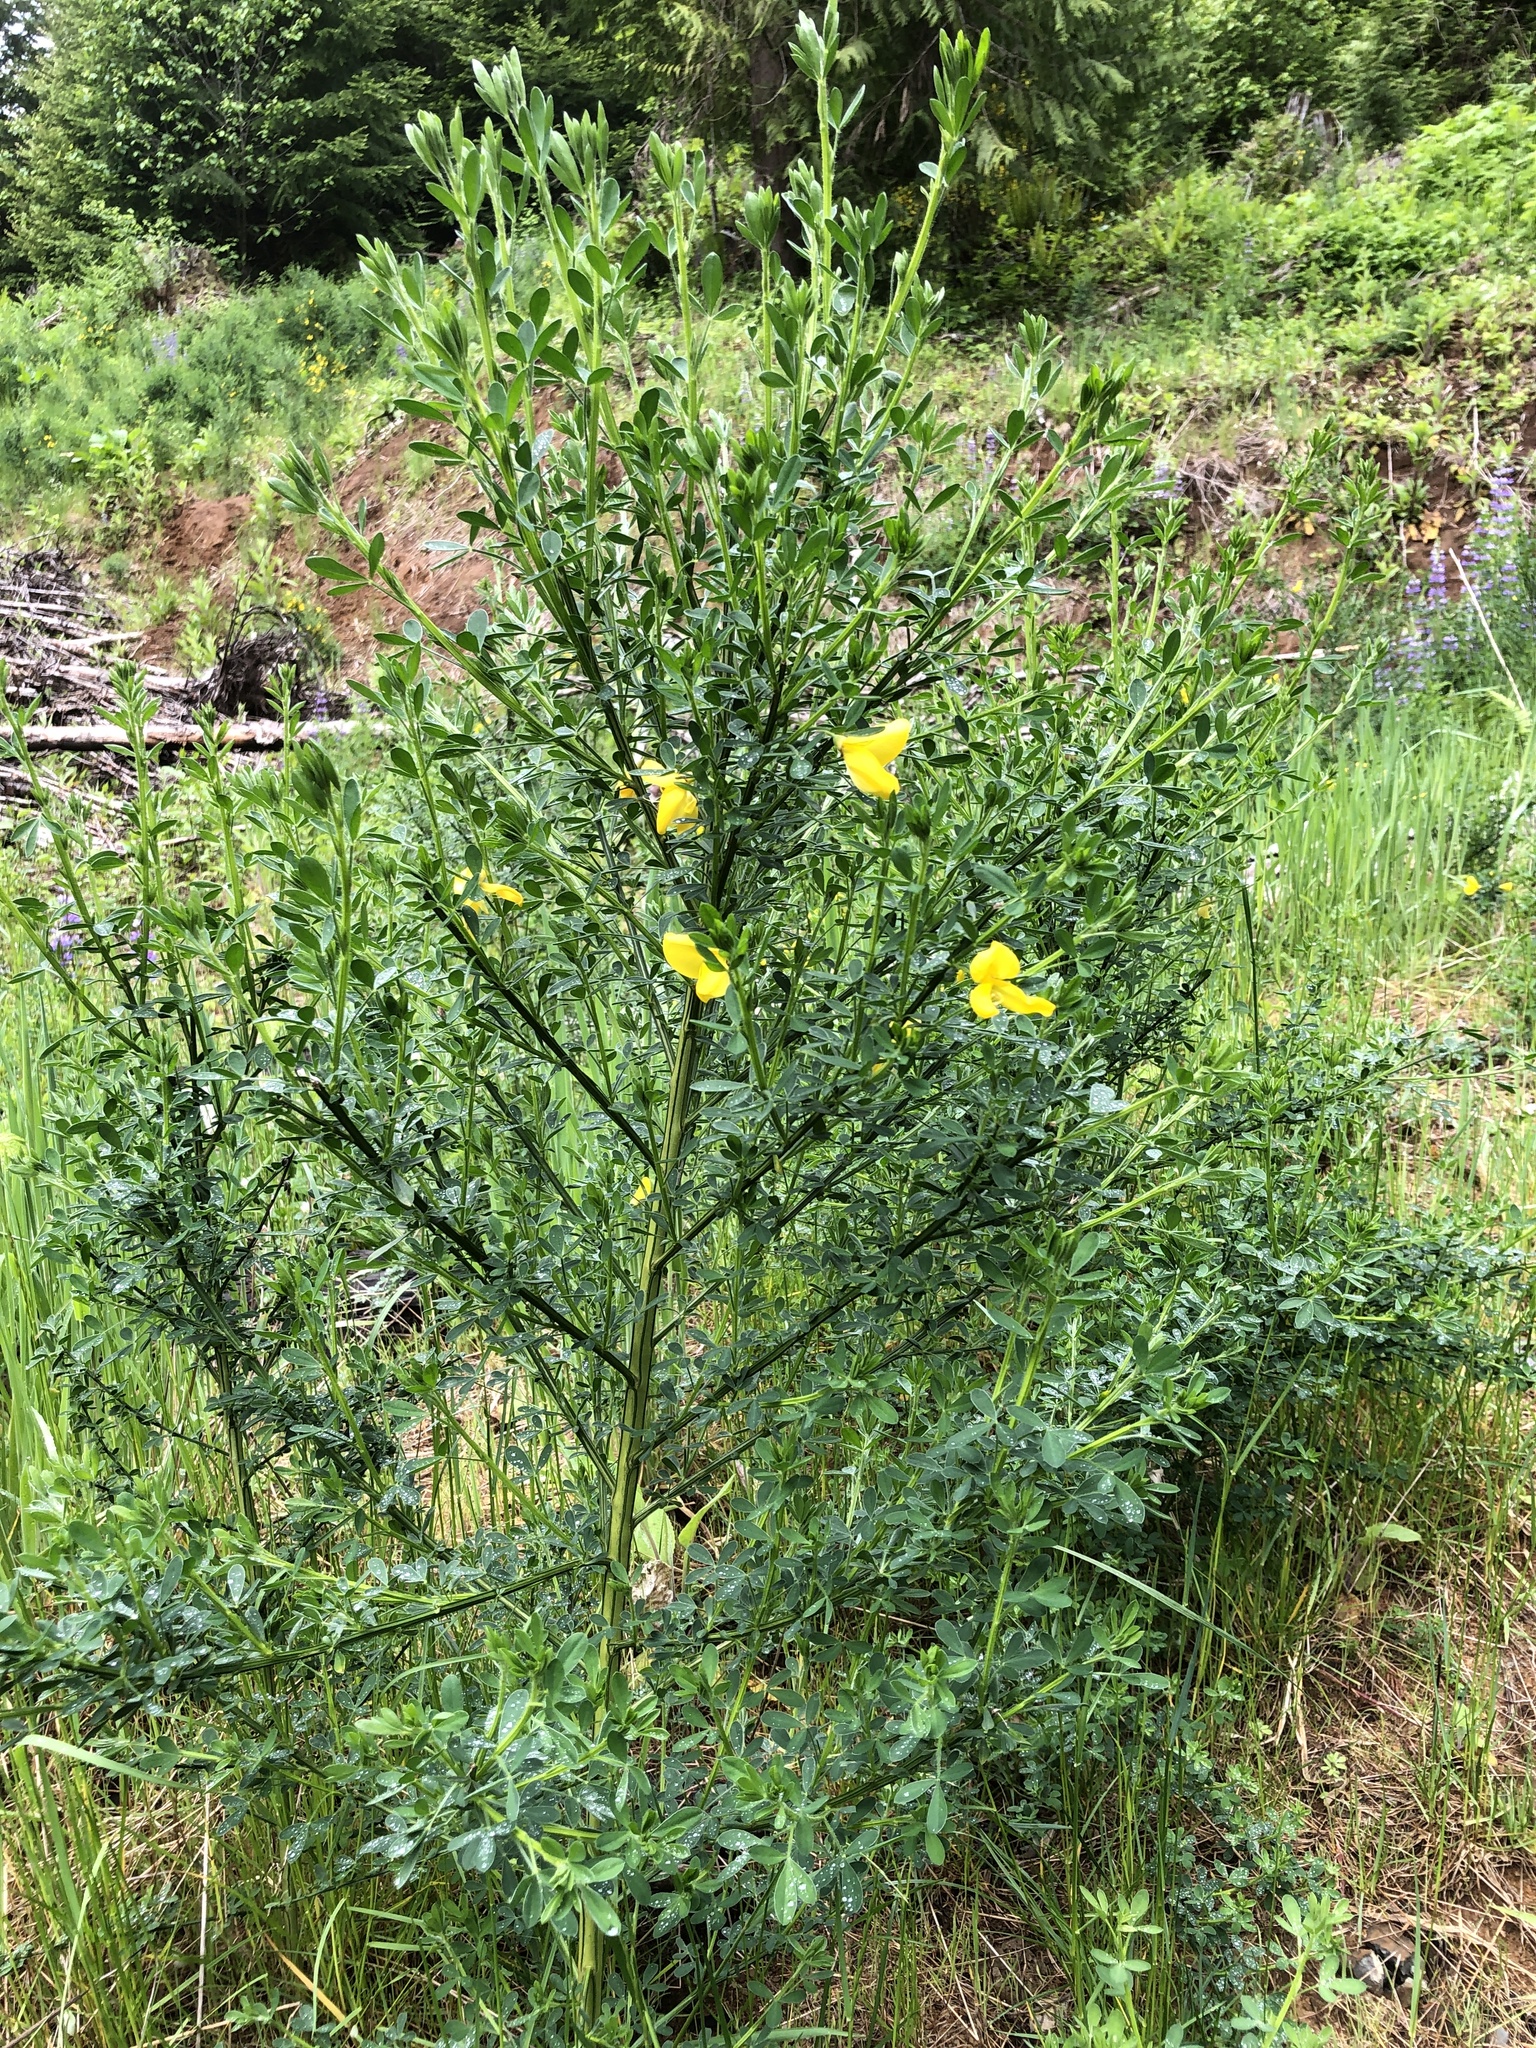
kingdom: Plantae
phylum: Tracheophyta
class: Magnoliopsida
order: Fabales
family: Fabaceae
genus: Cytisus
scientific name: Cytisus scoparius
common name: Scotch broom
